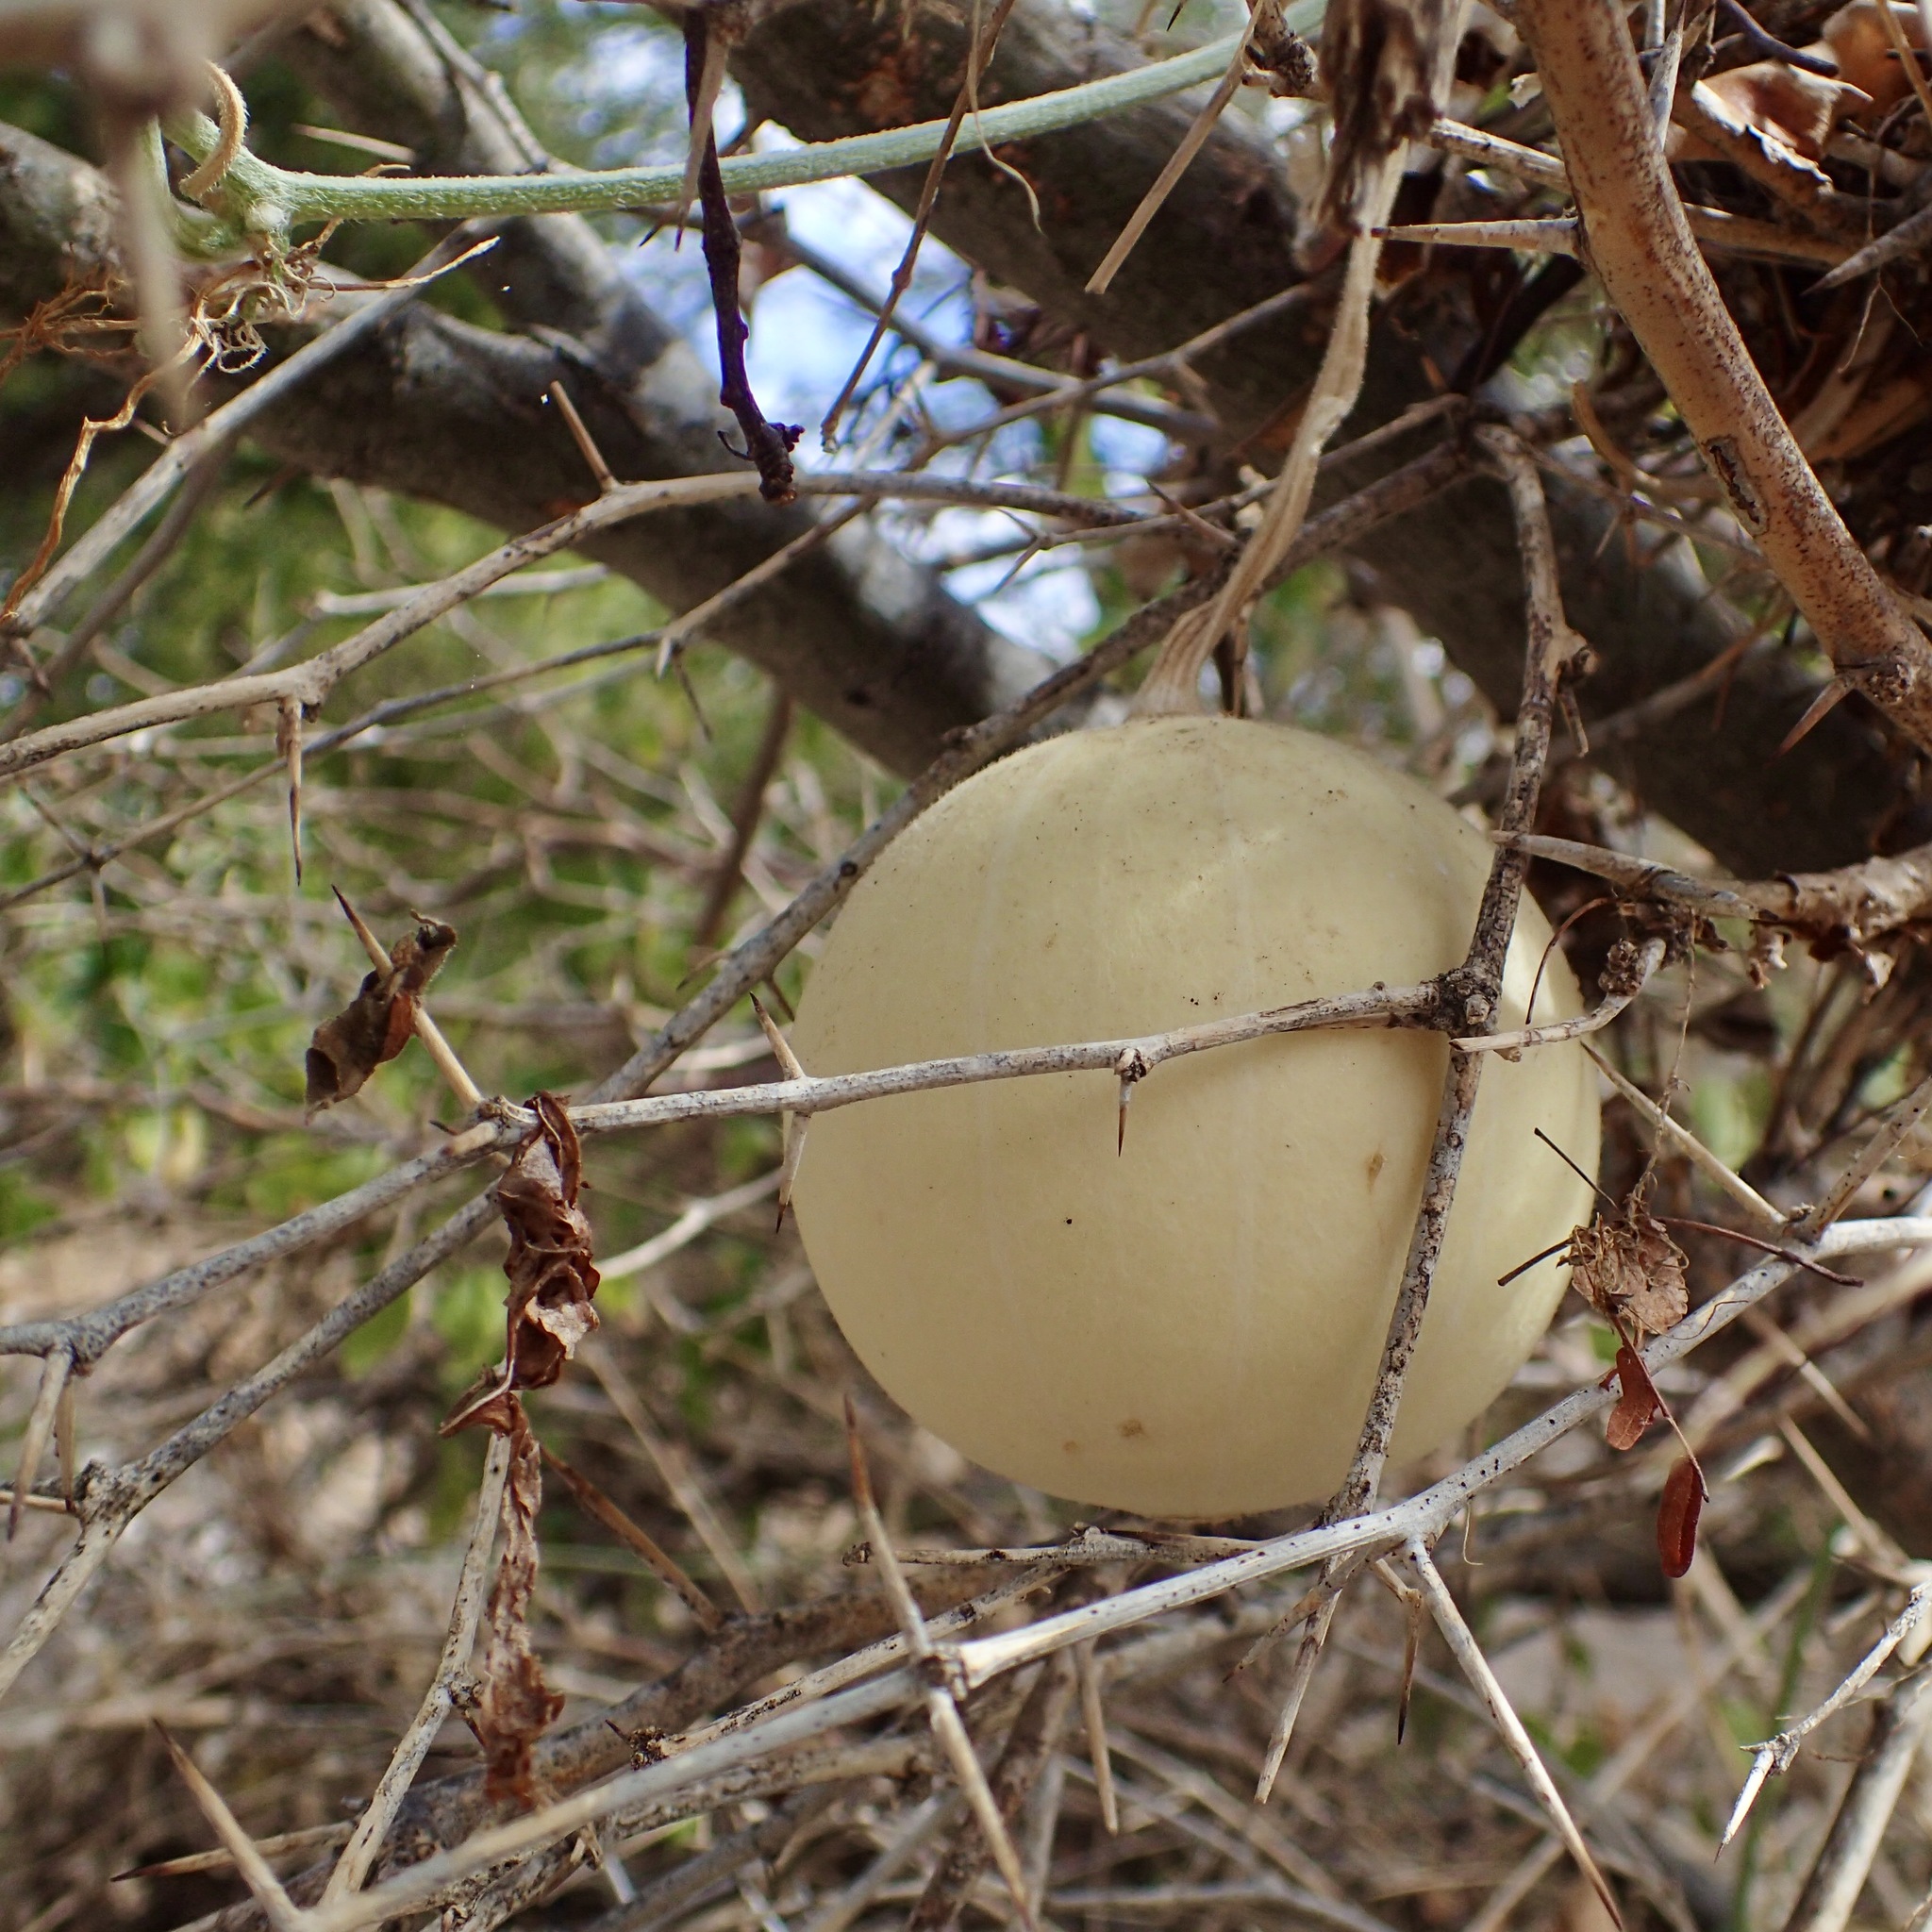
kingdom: Plantae
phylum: Tracheophyta
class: Magnoliopsida
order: Cucurbitales
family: Cucurbitaceae
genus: Cucurbita
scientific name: Cucurbita cordata
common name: Coyote gourd
